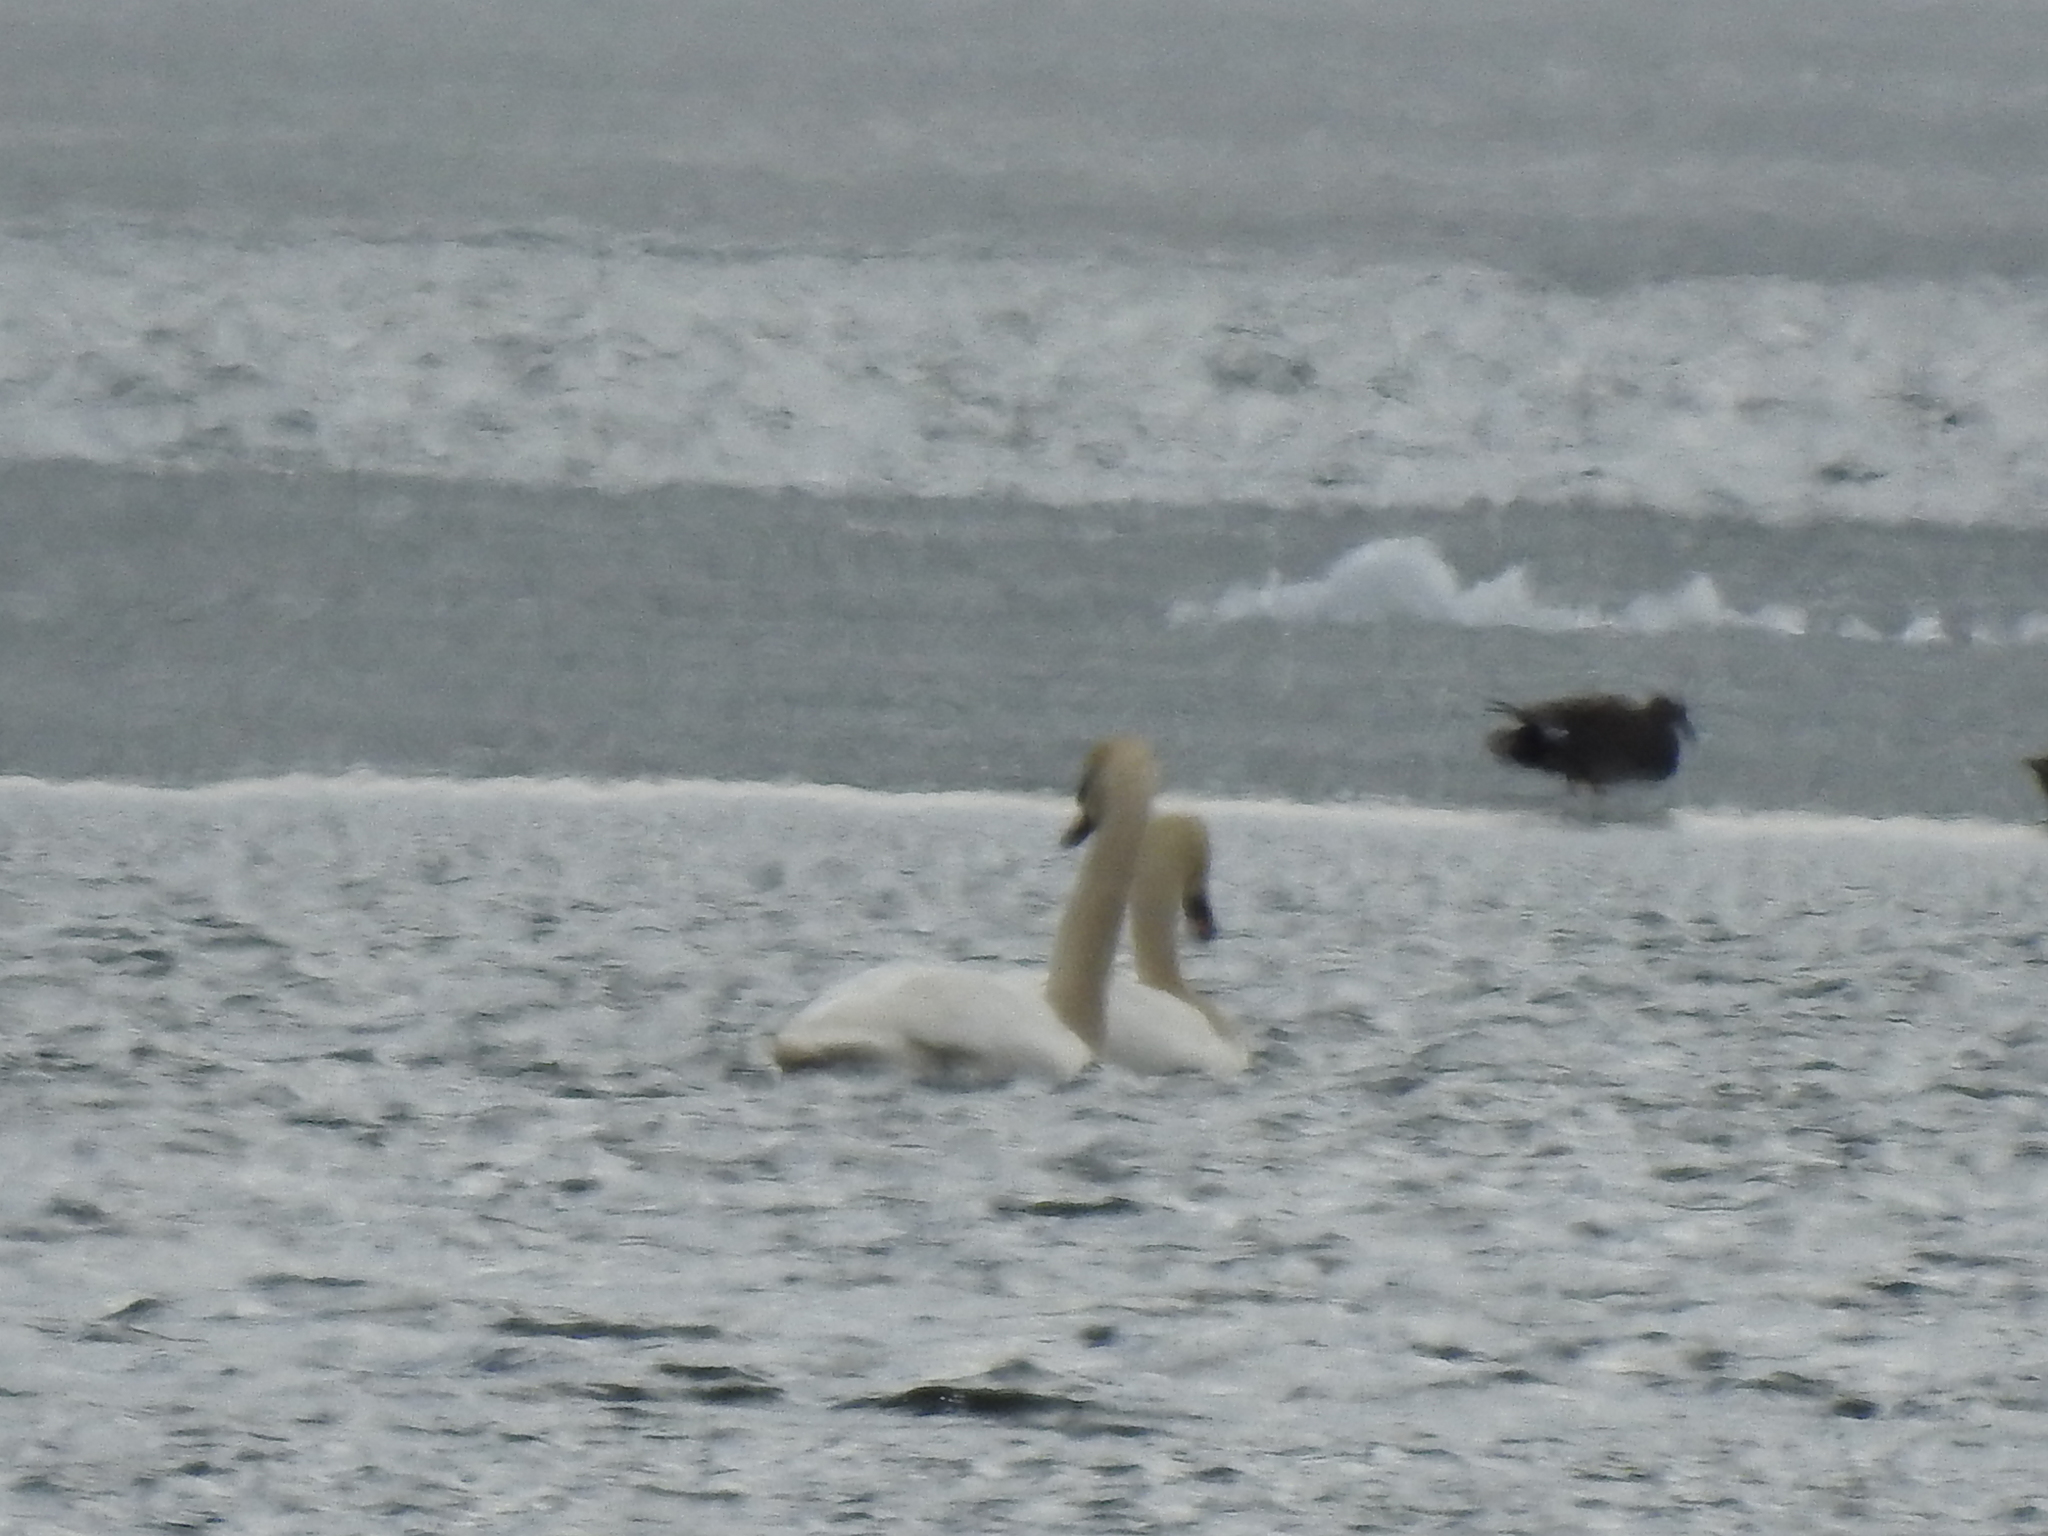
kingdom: Animalia
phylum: Chordata
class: Aves
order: Anseriformes
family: Anatidae
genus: Cygnus
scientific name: Cygnus olor
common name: Mute swan
